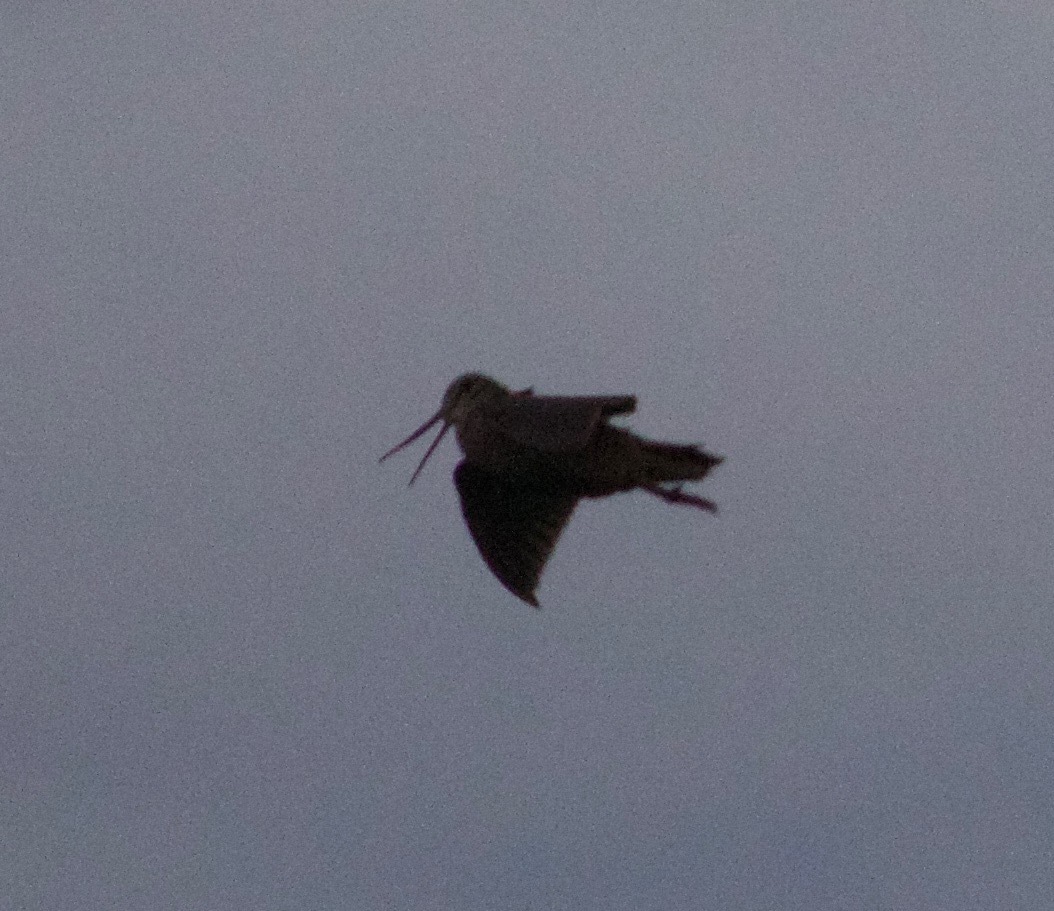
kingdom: Animalia
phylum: Chordata
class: Aves
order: Charadriiformes
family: Scolopacidae
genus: Scolopax
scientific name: Scolopax rusticola
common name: Eurasian woodcock
